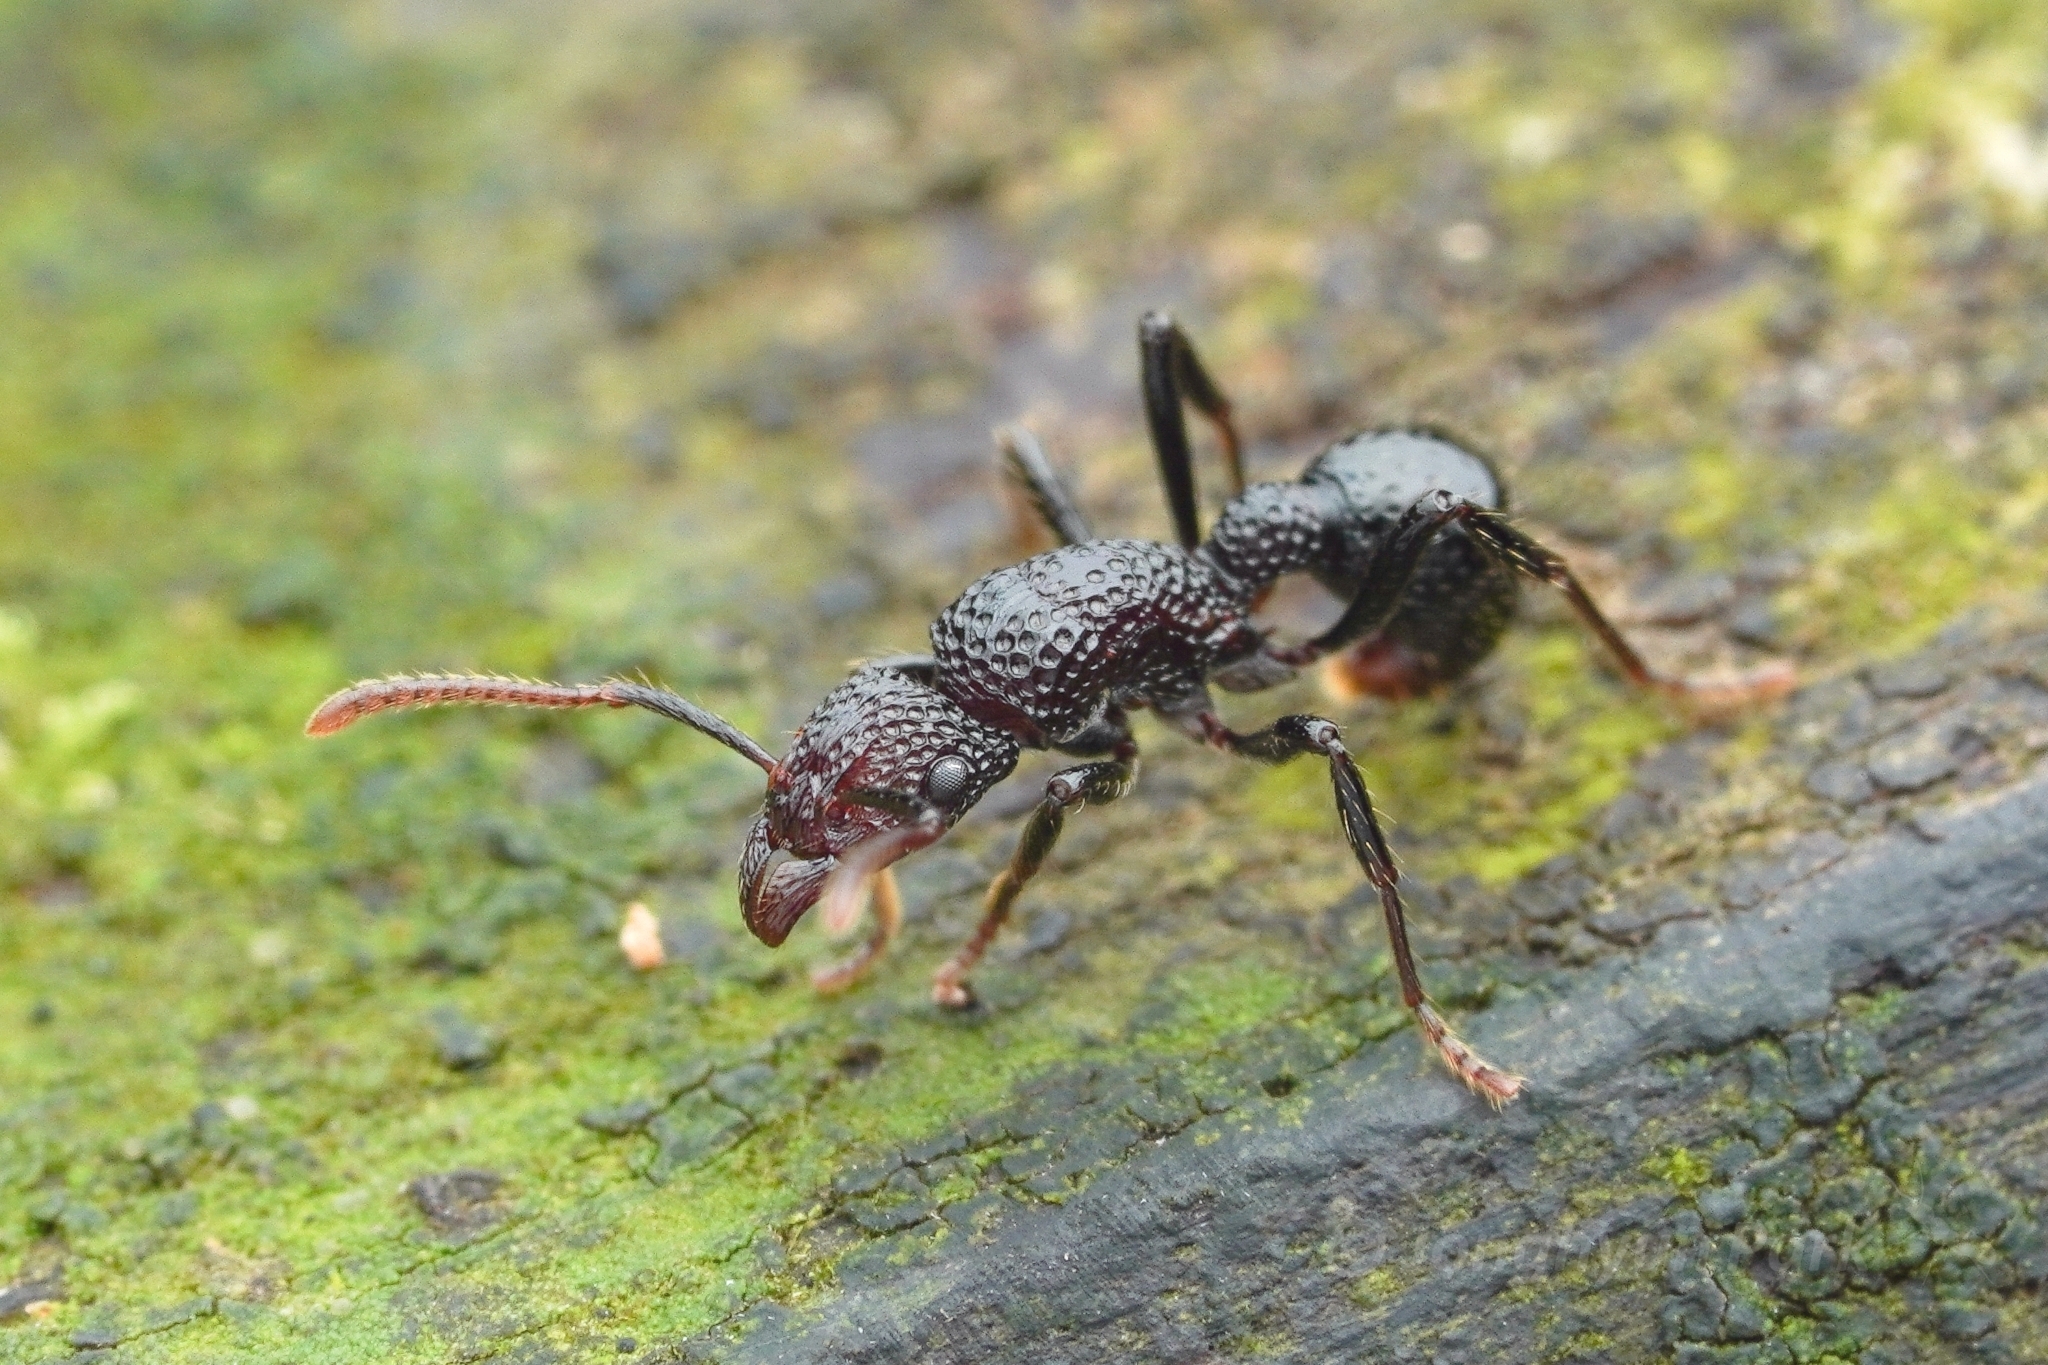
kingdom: Animalia
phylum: Arthropoda
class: Insecta
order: Hymenoptera
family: Formicidae
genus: Stictoponera
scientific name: Stictoponera
